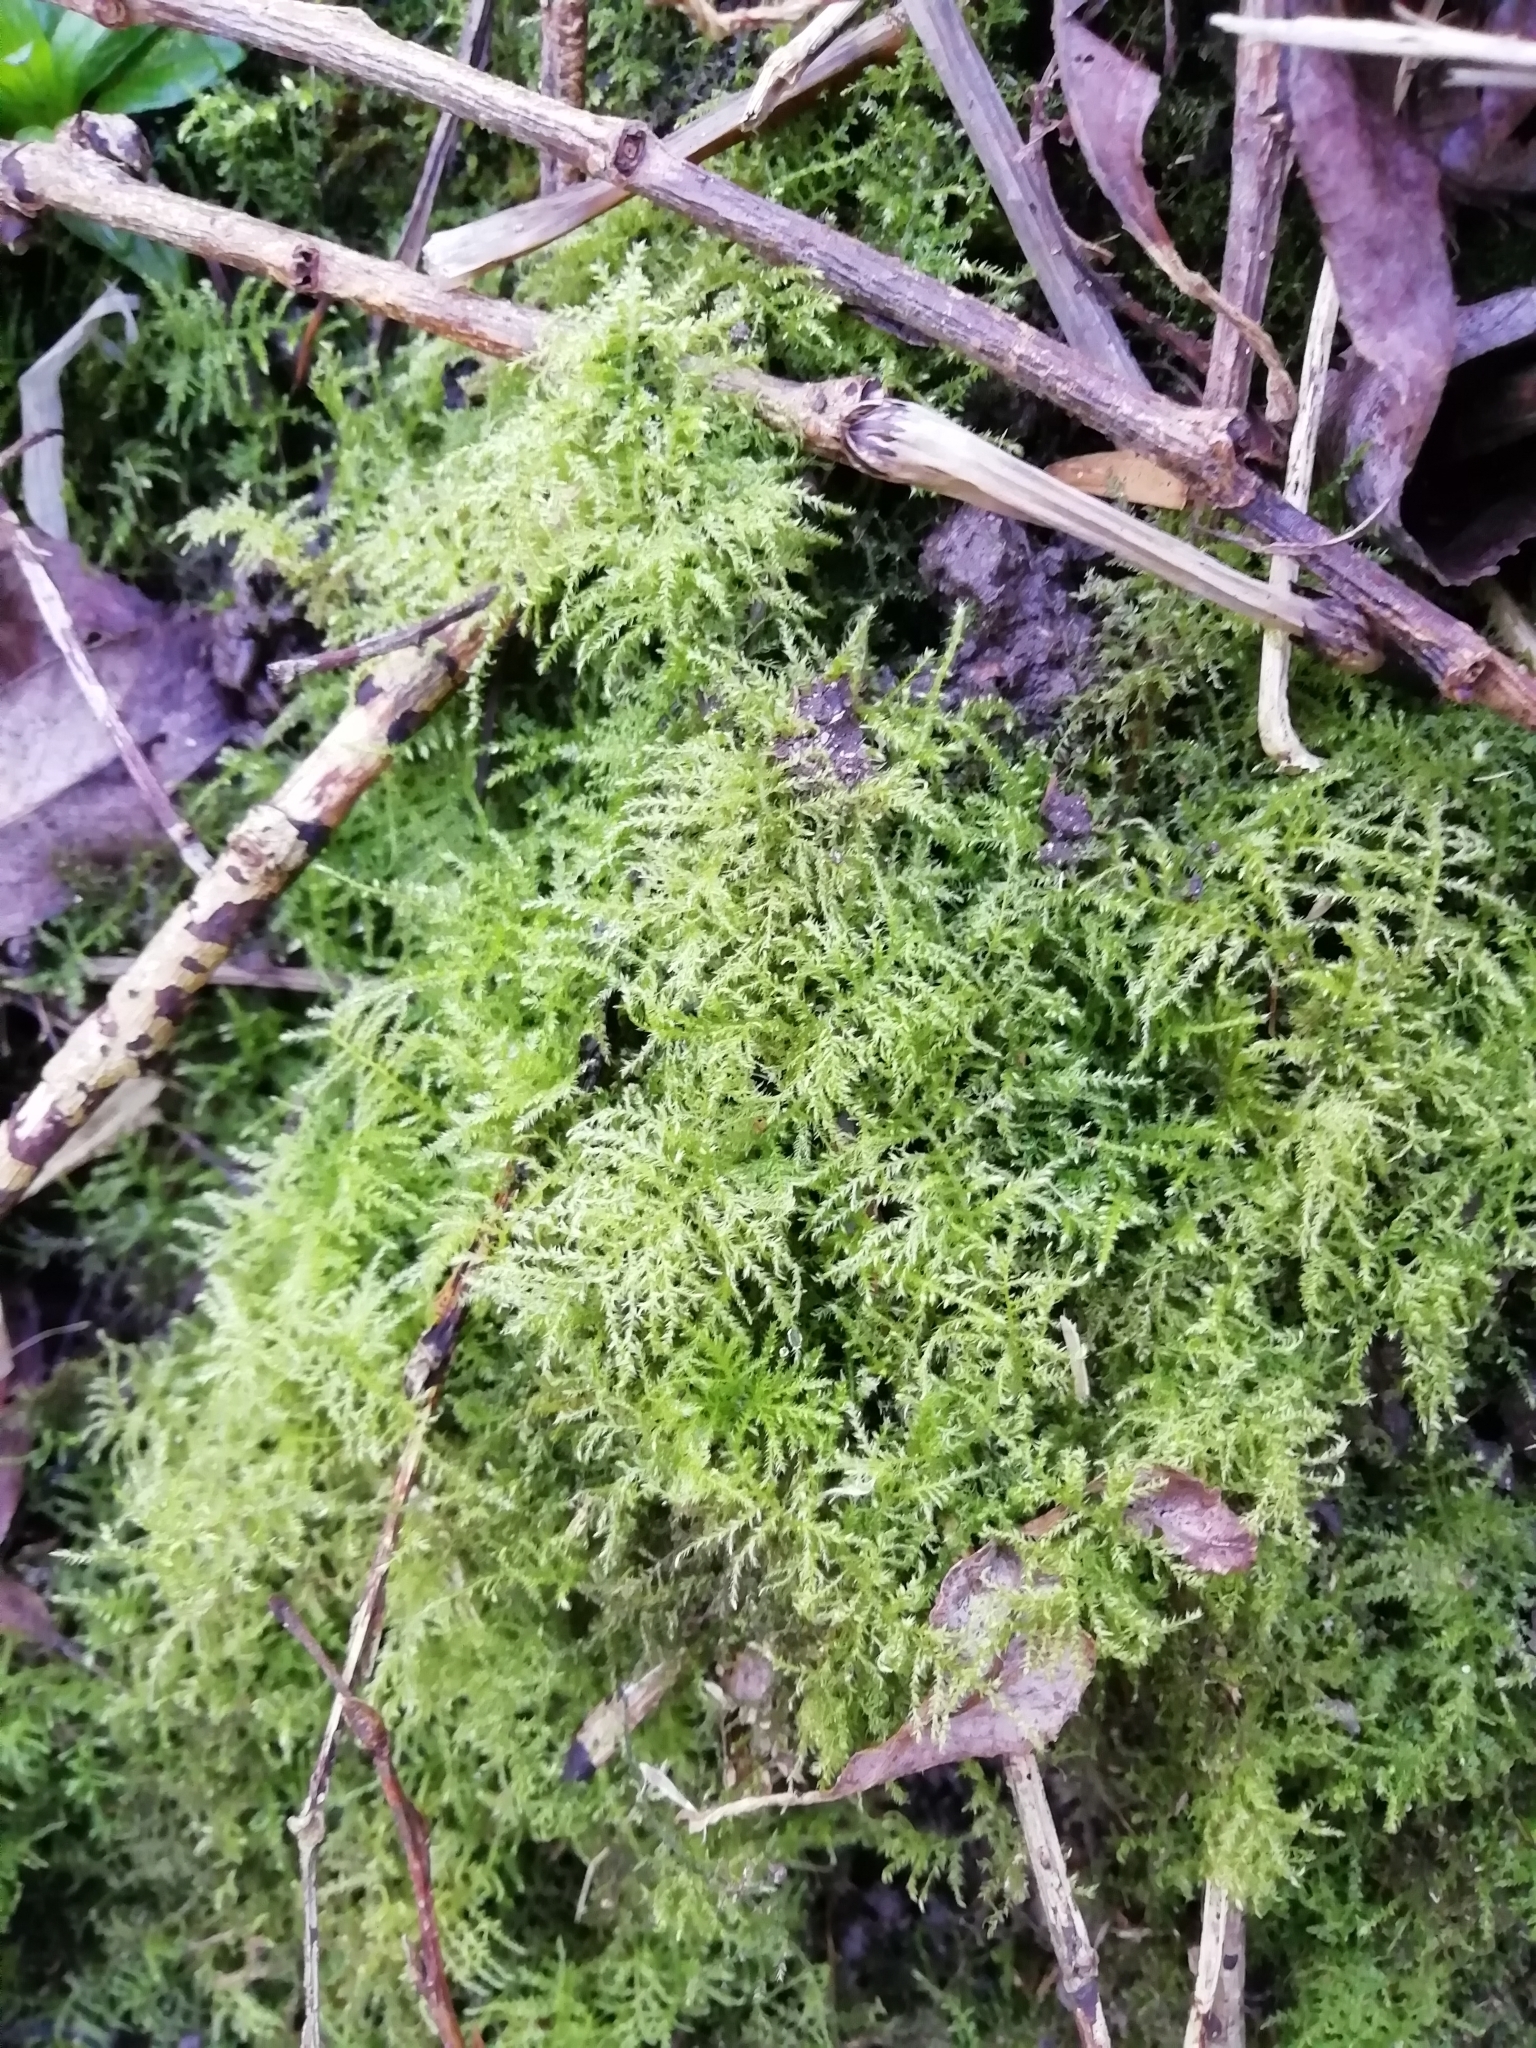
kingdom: Plantae
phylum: Bryophyta
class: Bryopsida
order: Hypnales
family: Brachytheciaceae
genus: Kindbergia
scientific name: Kindbergia praelonga
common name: Slender beaked moss
